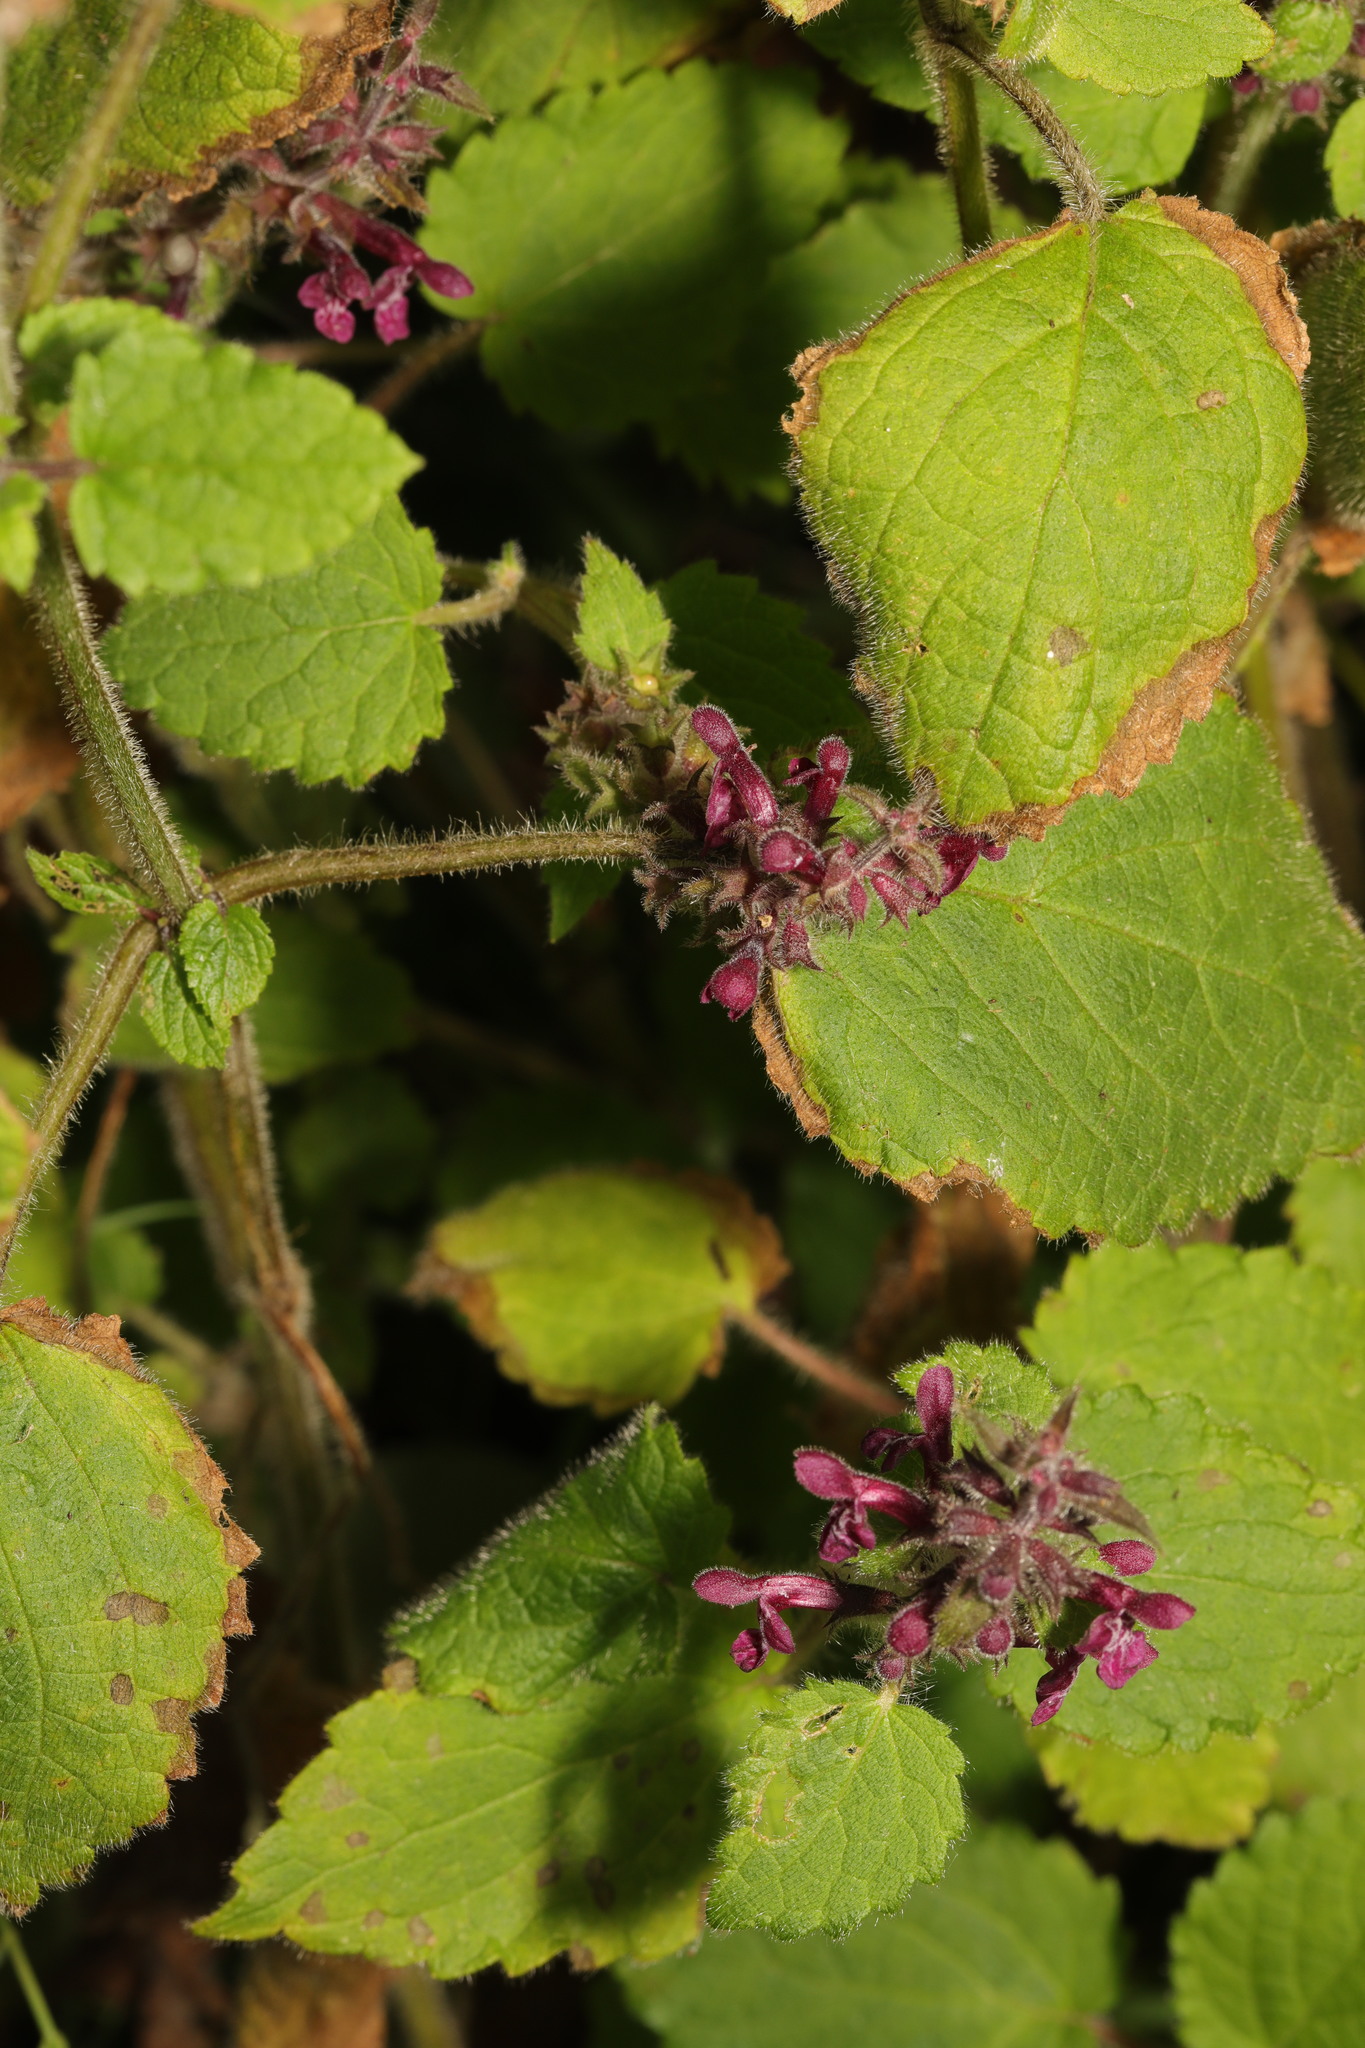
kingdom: Plantae
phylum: Tracheophyta
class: Magnoliopsida
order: Lamiales
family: Lamiaceae
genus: Stachys
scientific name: Stachys sylvatica
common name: Hedge woundwort
